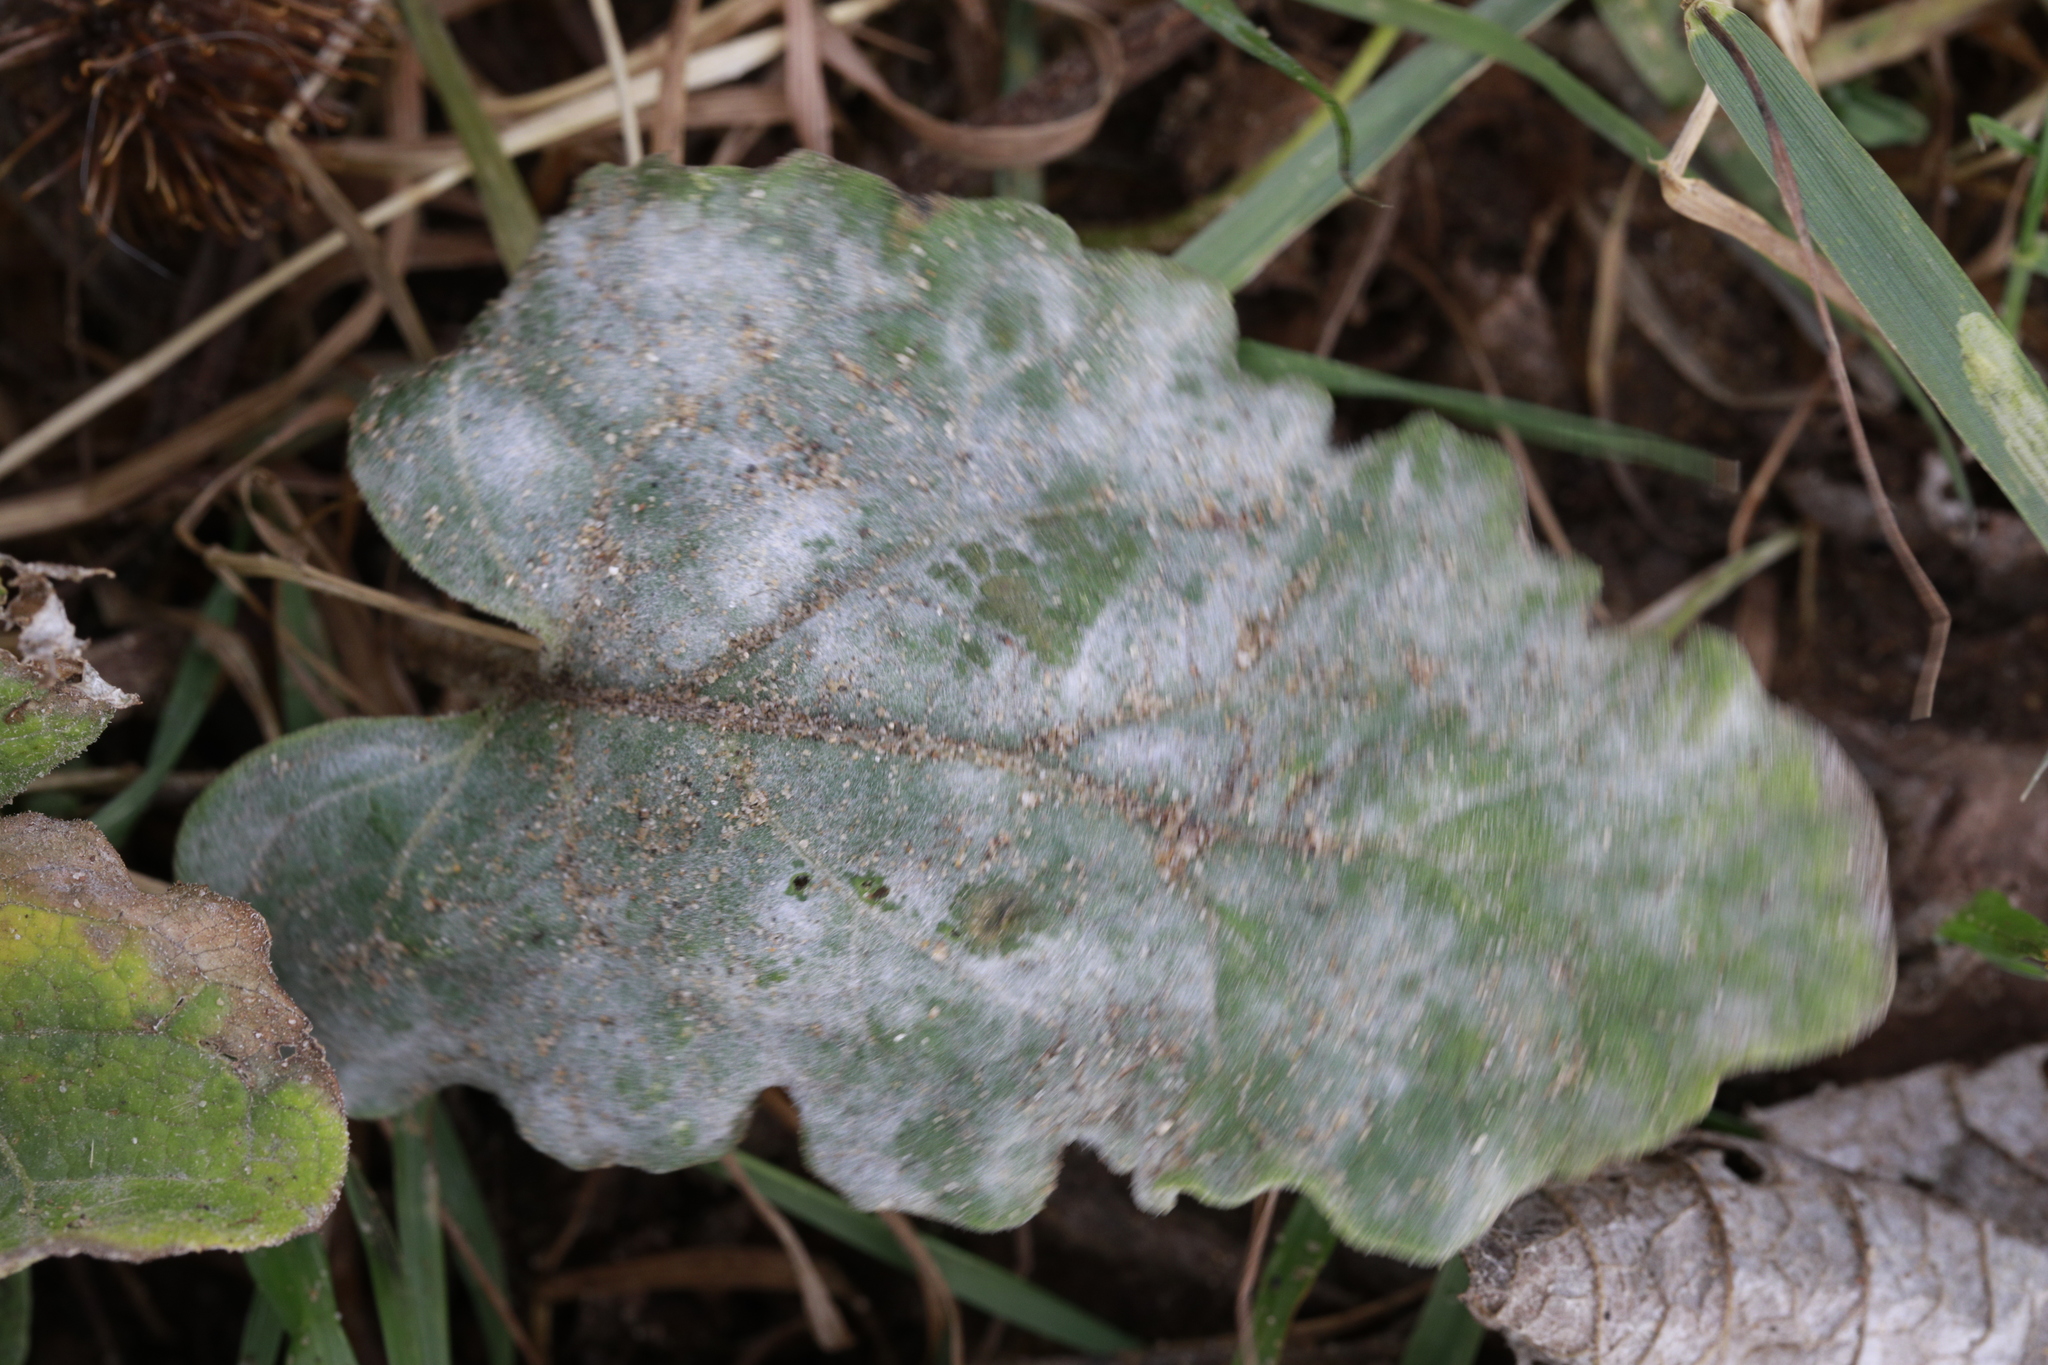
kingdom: Fungi
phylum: Ascomycota
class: Leotiomycetes
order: Helotiales
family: Erysiphaceae
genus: Golovinomyces
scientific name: Golovinomyces depressus
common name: Burdock mildew
